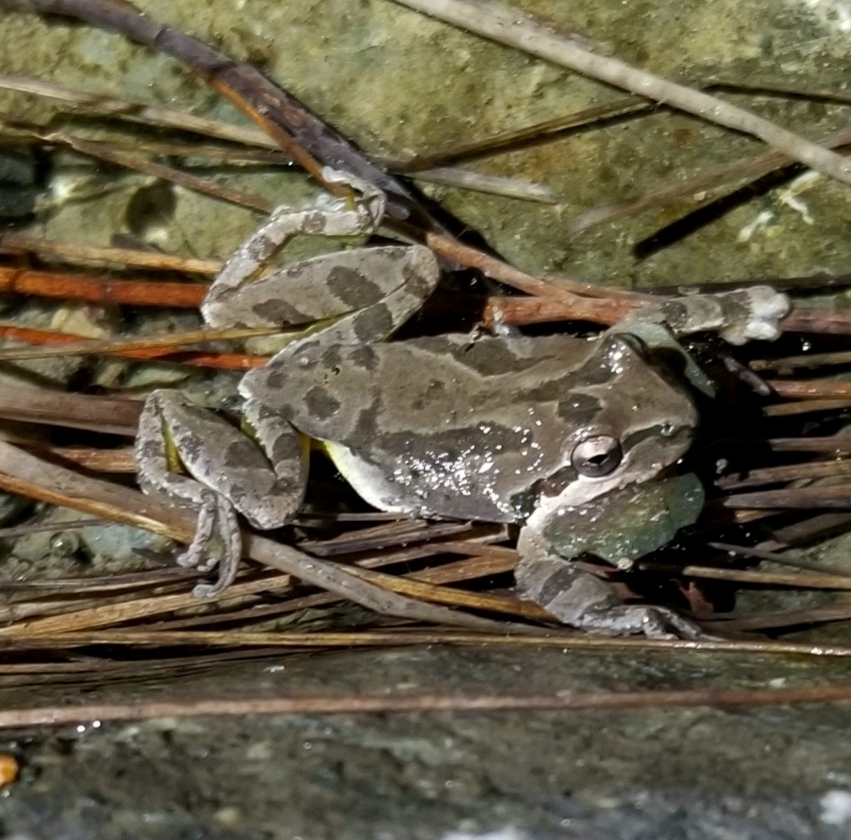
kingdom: Animalia
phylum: Chordata
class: Amphibia
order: Anura
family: Hylidae
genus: Pseudacris
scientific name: Pseudacris regilla
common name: Pacific chorus frog
